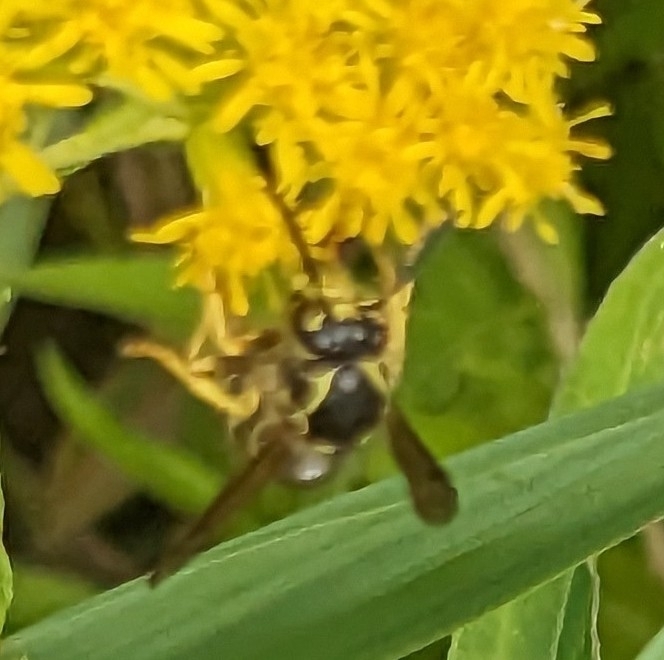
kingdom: Animalia
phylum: Arthropoda
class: Insecta
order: Hymenoptera
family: Vespidae
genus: Dolichovespula
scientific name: Dolichovespula arenaria
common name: Aerial yellowjacket
